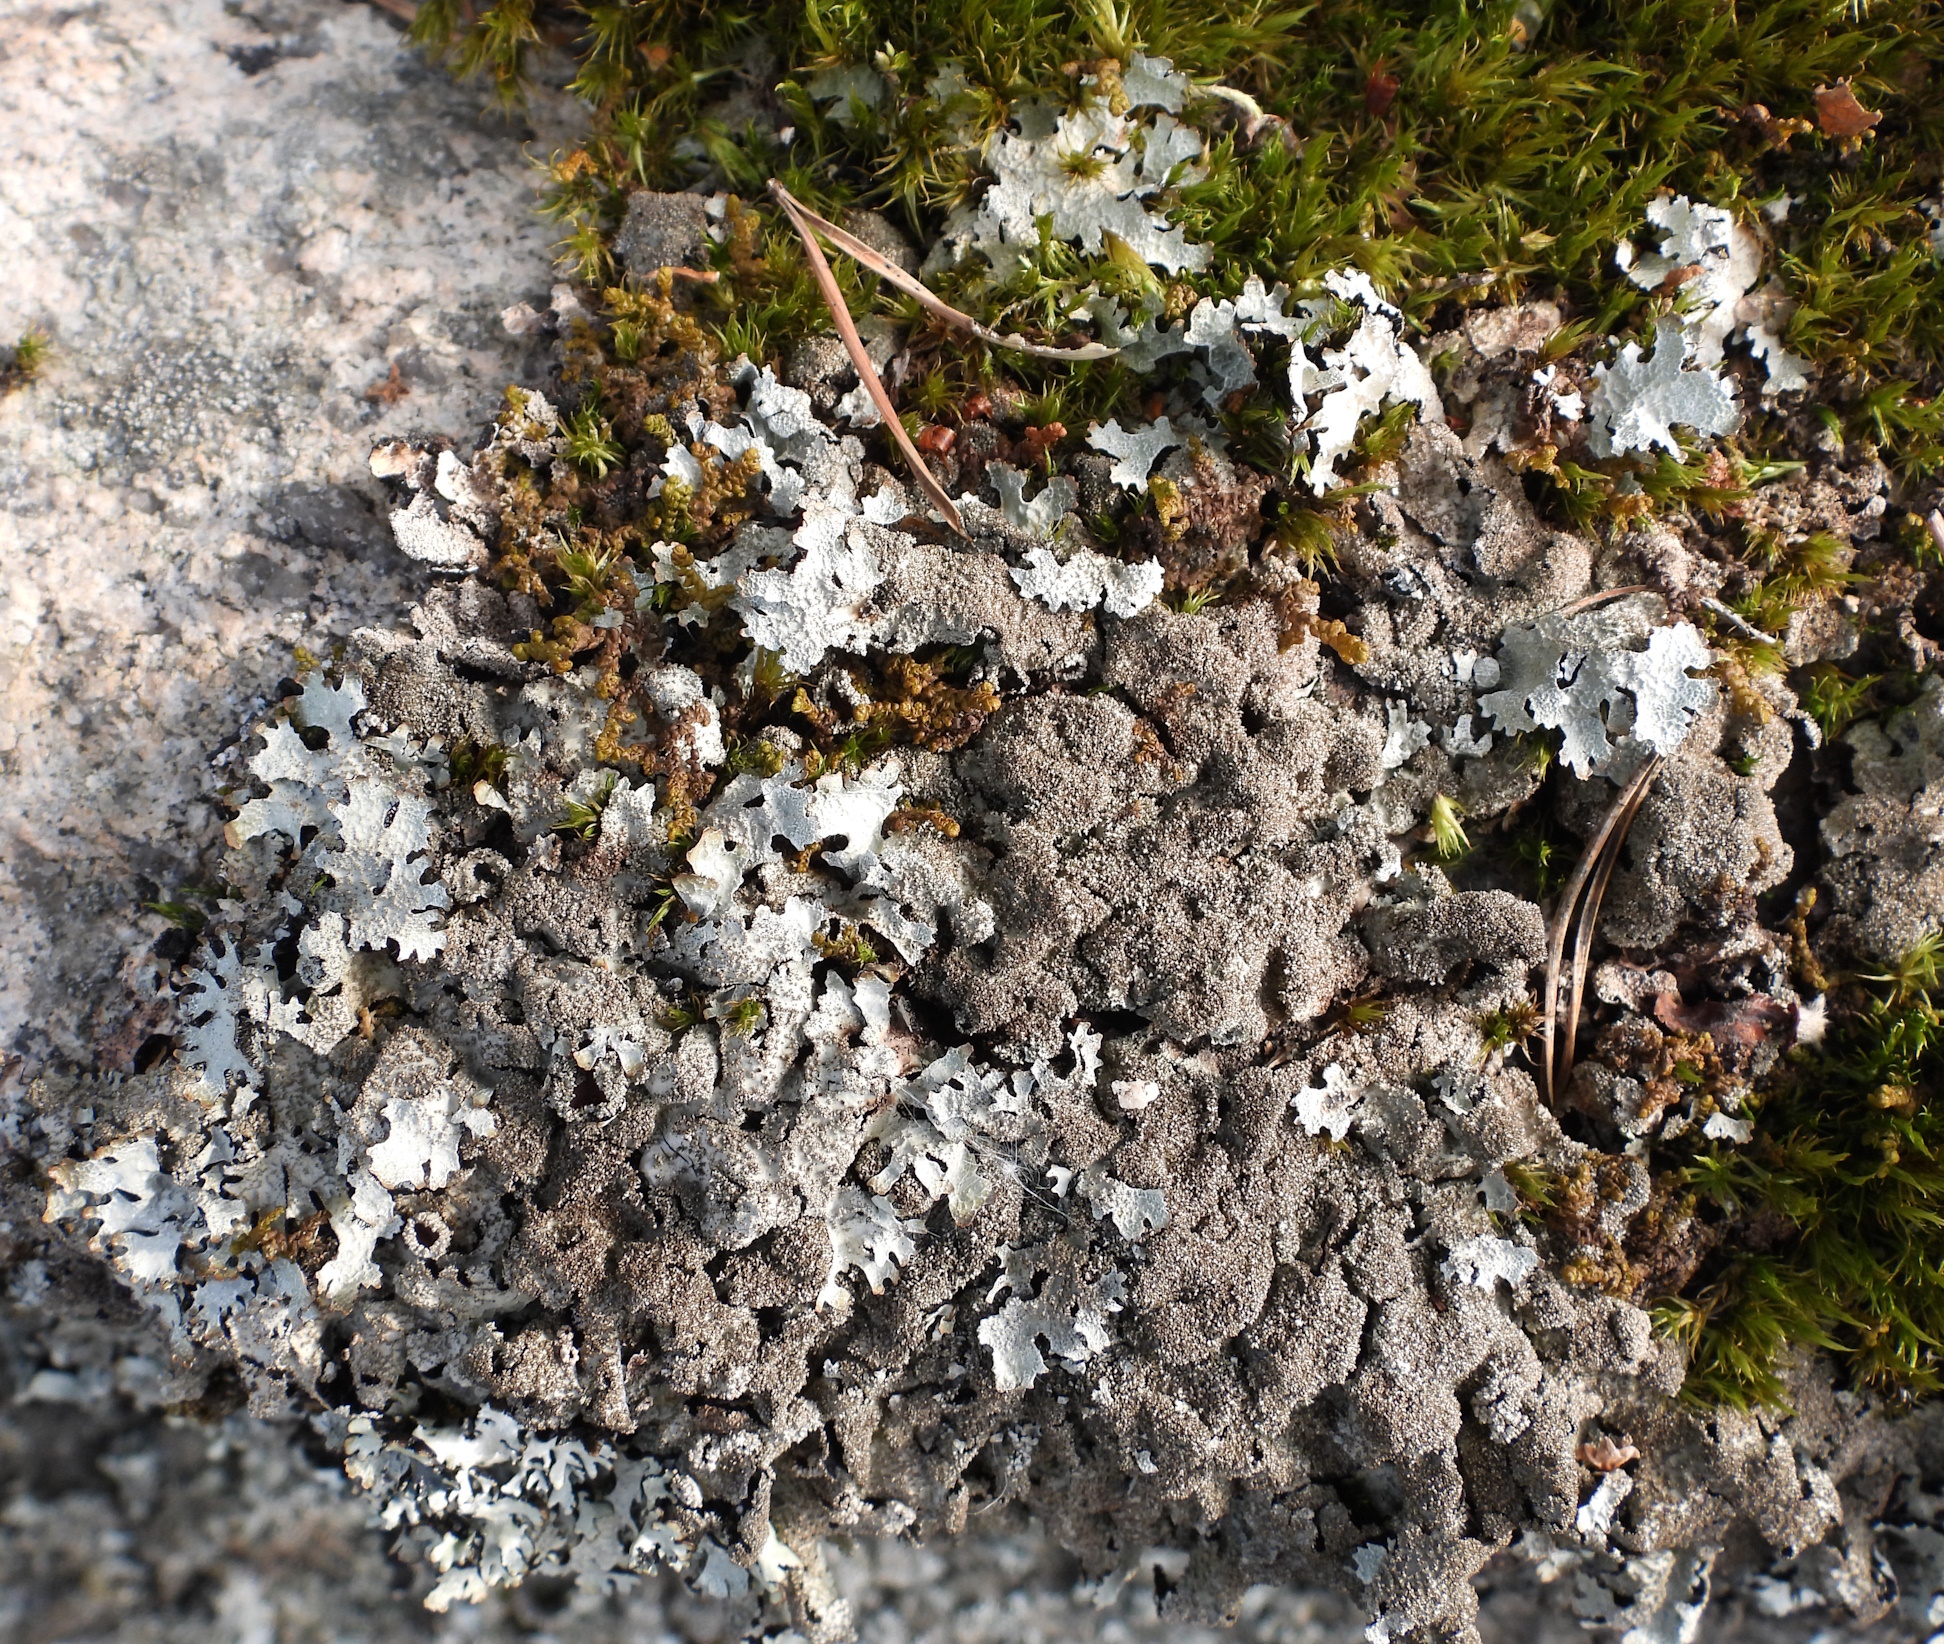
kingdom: Fungi
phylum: Ascomycota
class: Lecanoromycetes
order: Lecanorales
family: Parmeliaceae
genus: Parmelia
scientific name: Parmelia saxatilis
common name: Salted shield lichen
